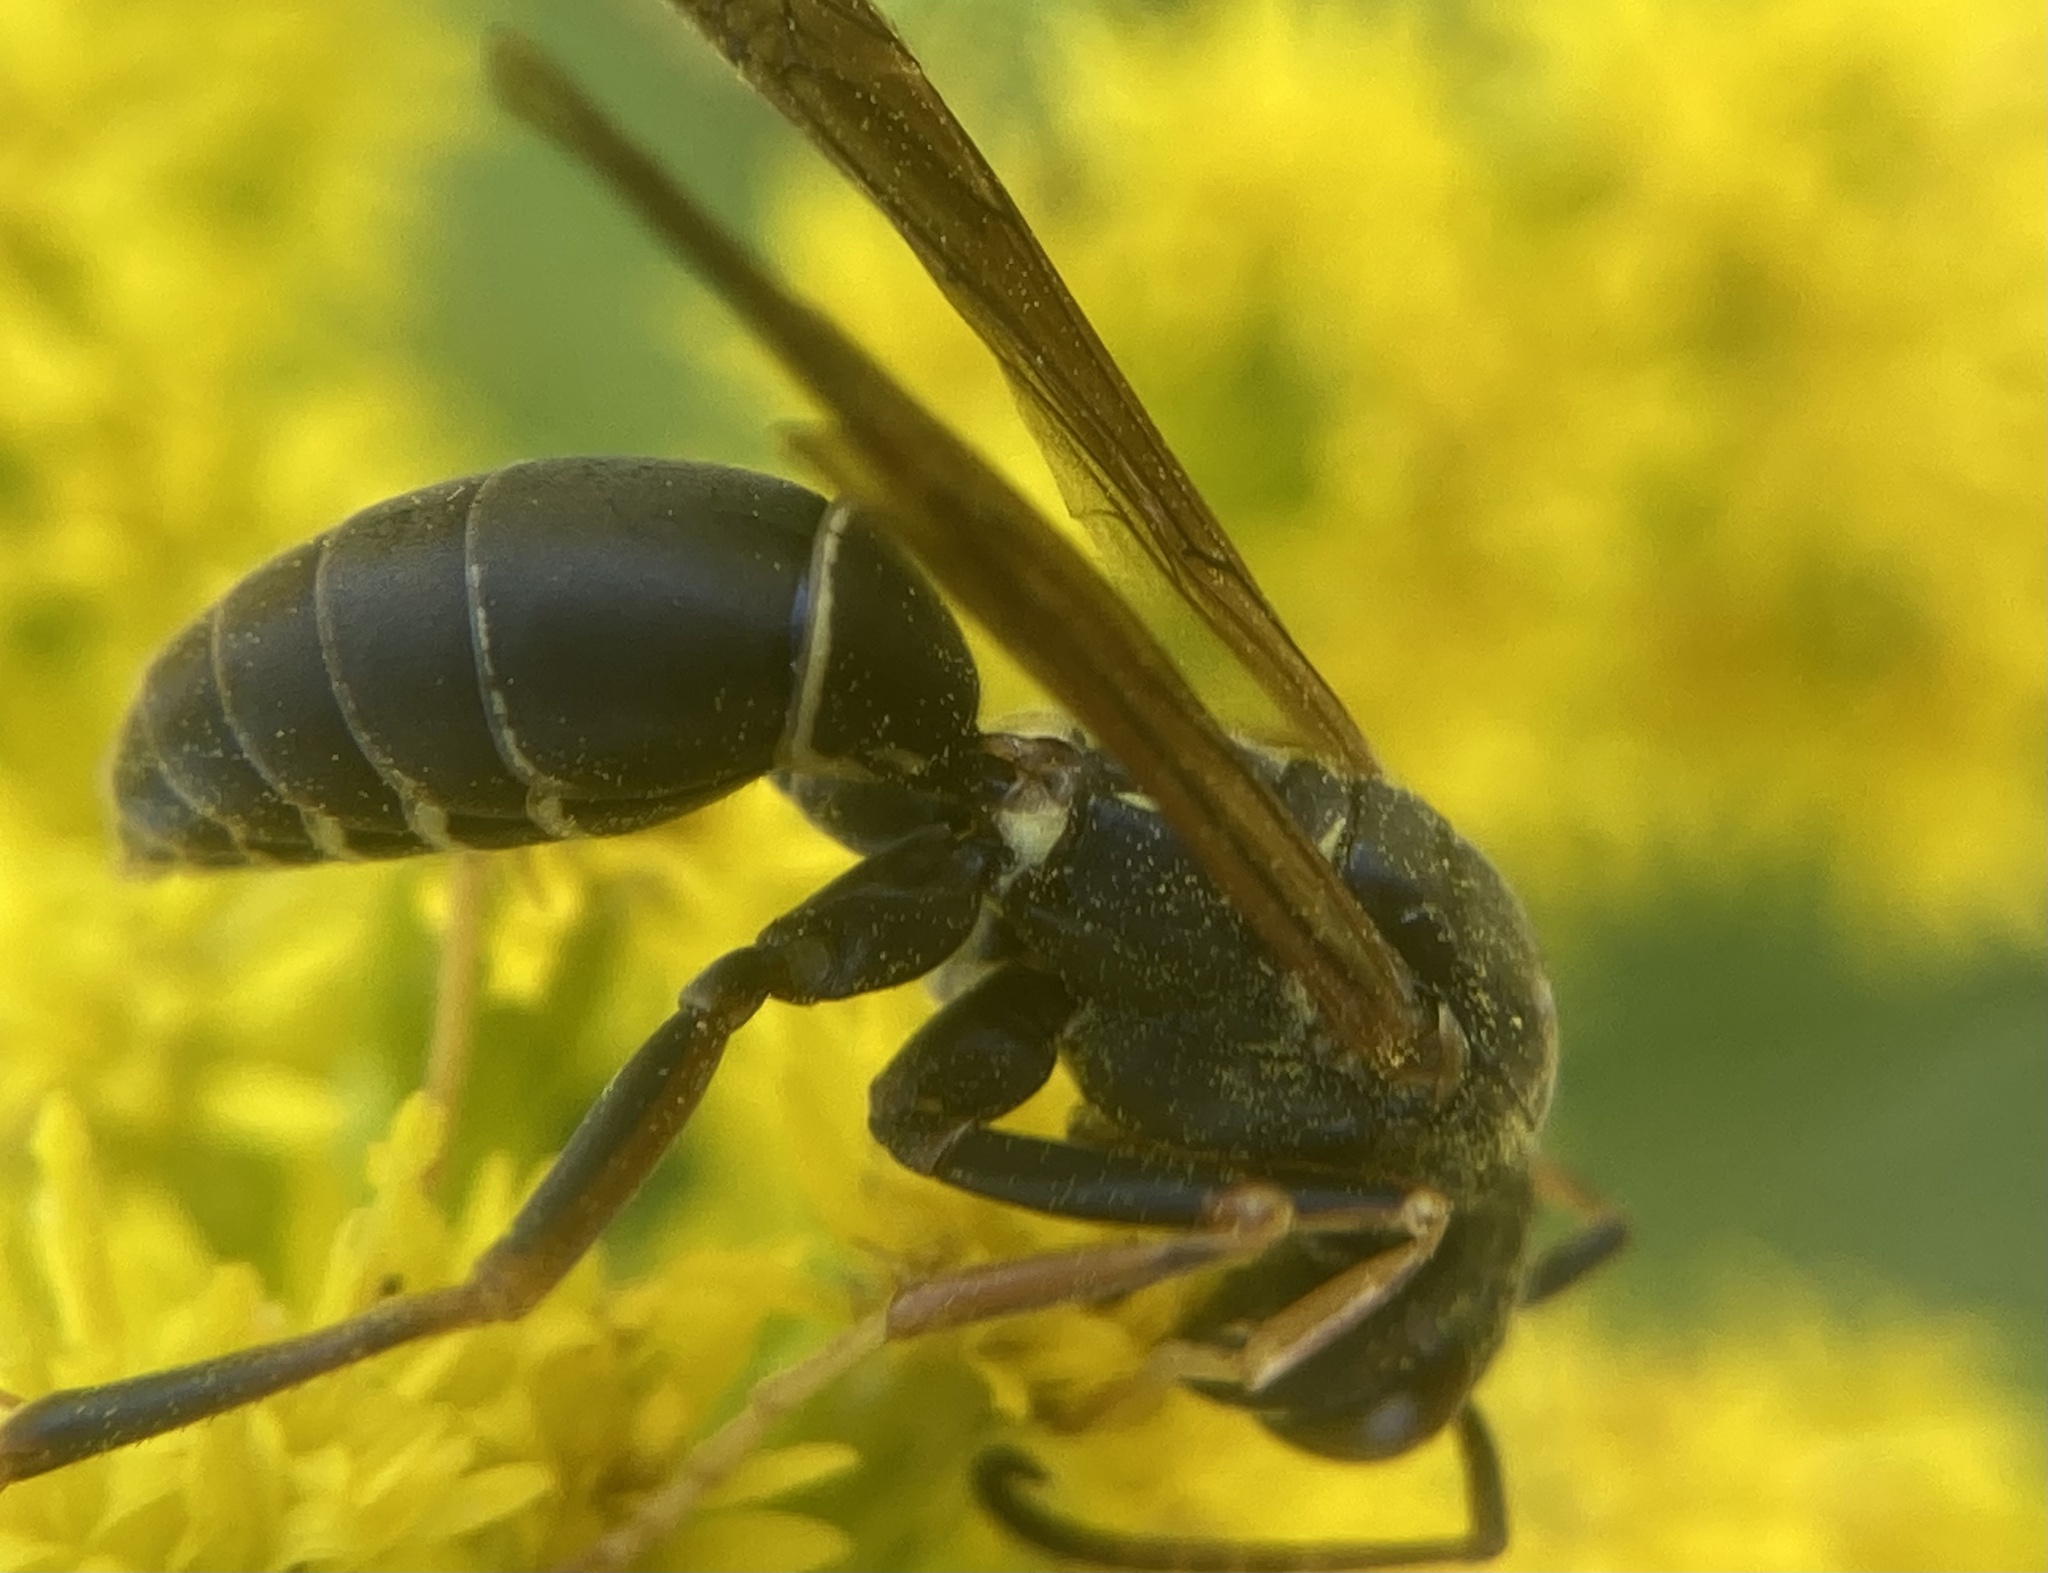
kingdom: Animalia
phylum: Arthropoda
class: Insecta
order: Hymenoptera
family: Eumenidae
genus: Polistes
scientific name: Polistes fuscatus
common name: Dark paper wasp
